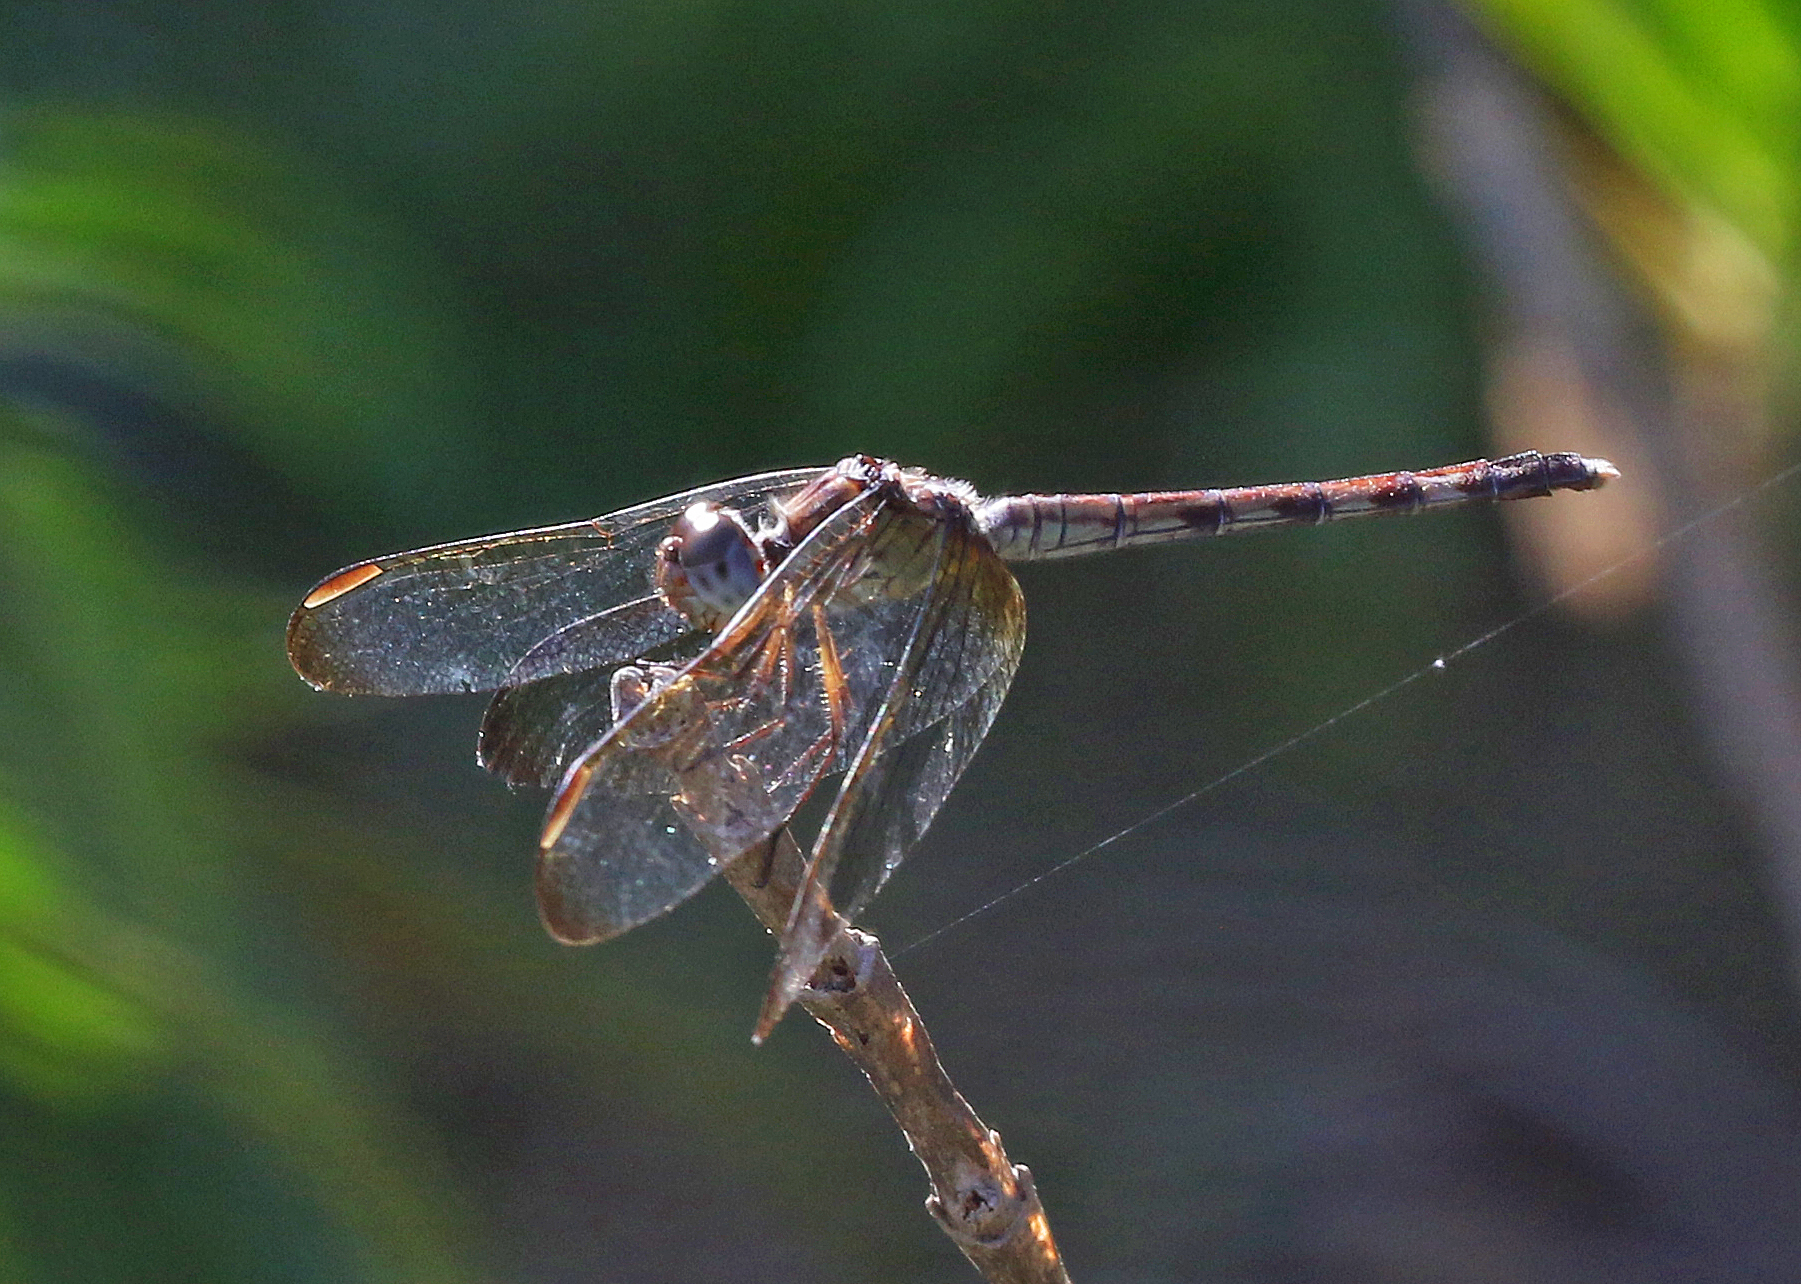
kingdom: Animalia
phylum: Arthropoda
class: Insecta
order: Odonata
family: Libellulidae
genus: Erythrodiplax
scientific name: Erythrodiplax umbrata
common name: Band-winged dragonlet
